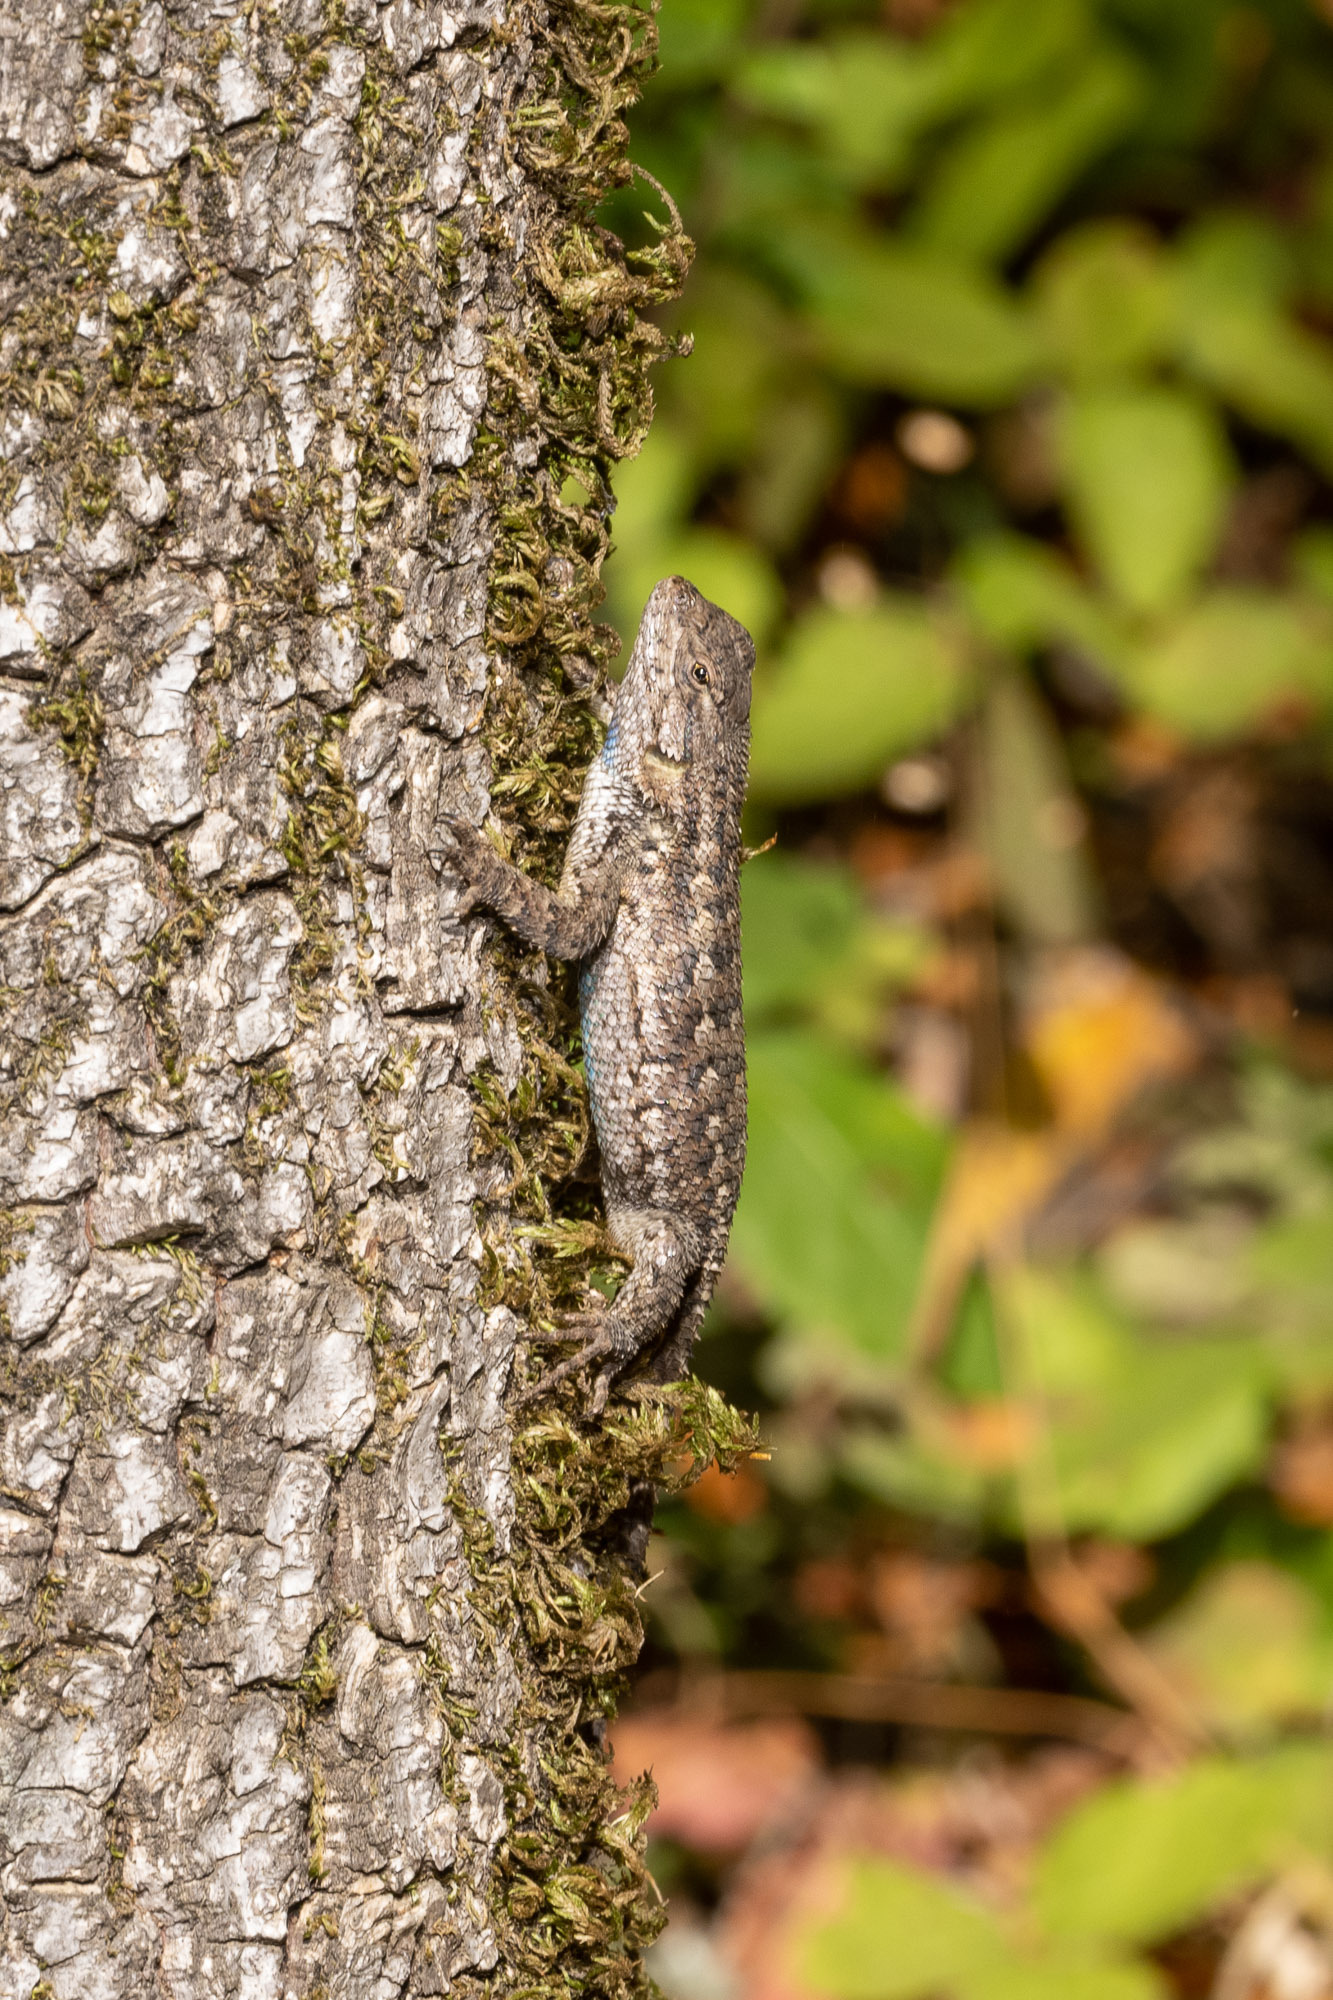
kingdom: Animalia
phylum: Chordata
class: Squamata
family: Phrynosomatidae
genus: Sceloporus
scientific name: Sceloporus occidentalis
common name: Western fence lizard
